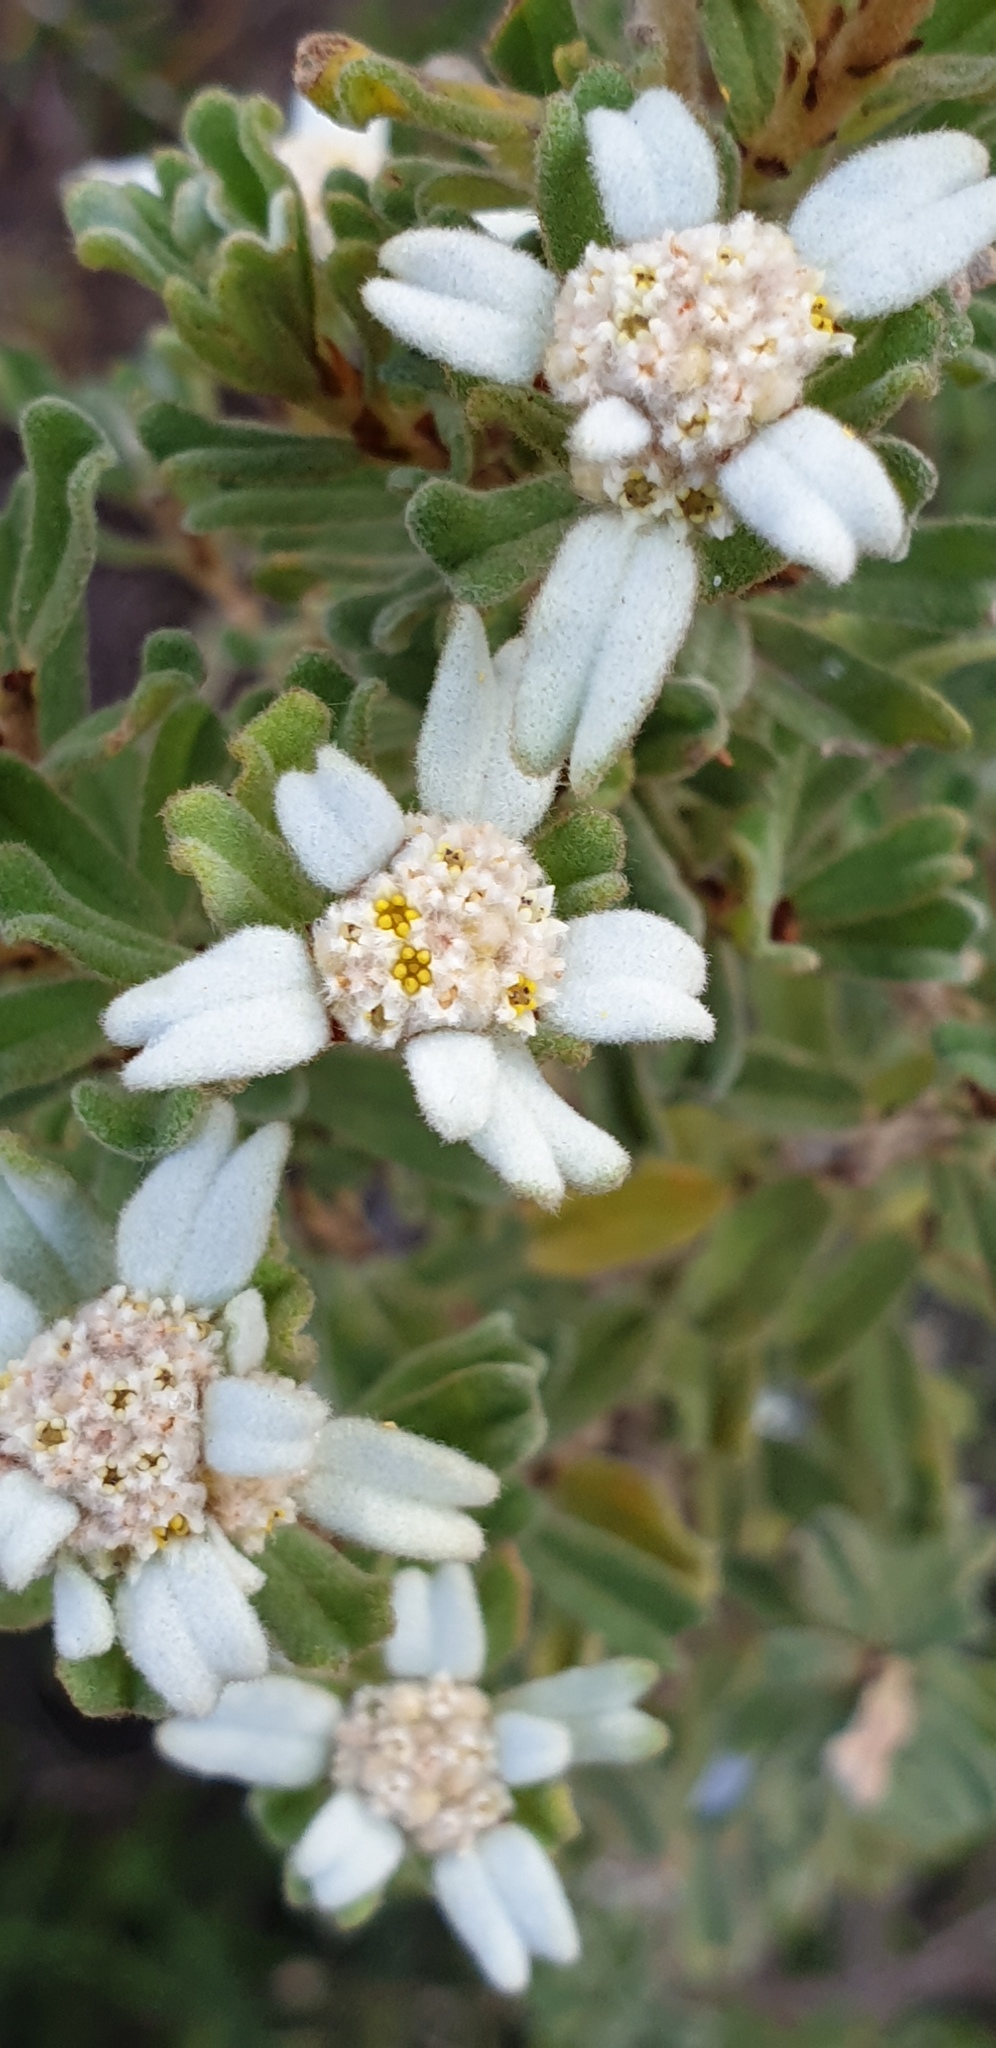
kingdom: Plantae
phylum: Tracheophyta
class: Magnoliopsida
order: Rosales
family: Rhamnaceae
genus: Spyridium
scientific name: Spyridium halmaturinum
